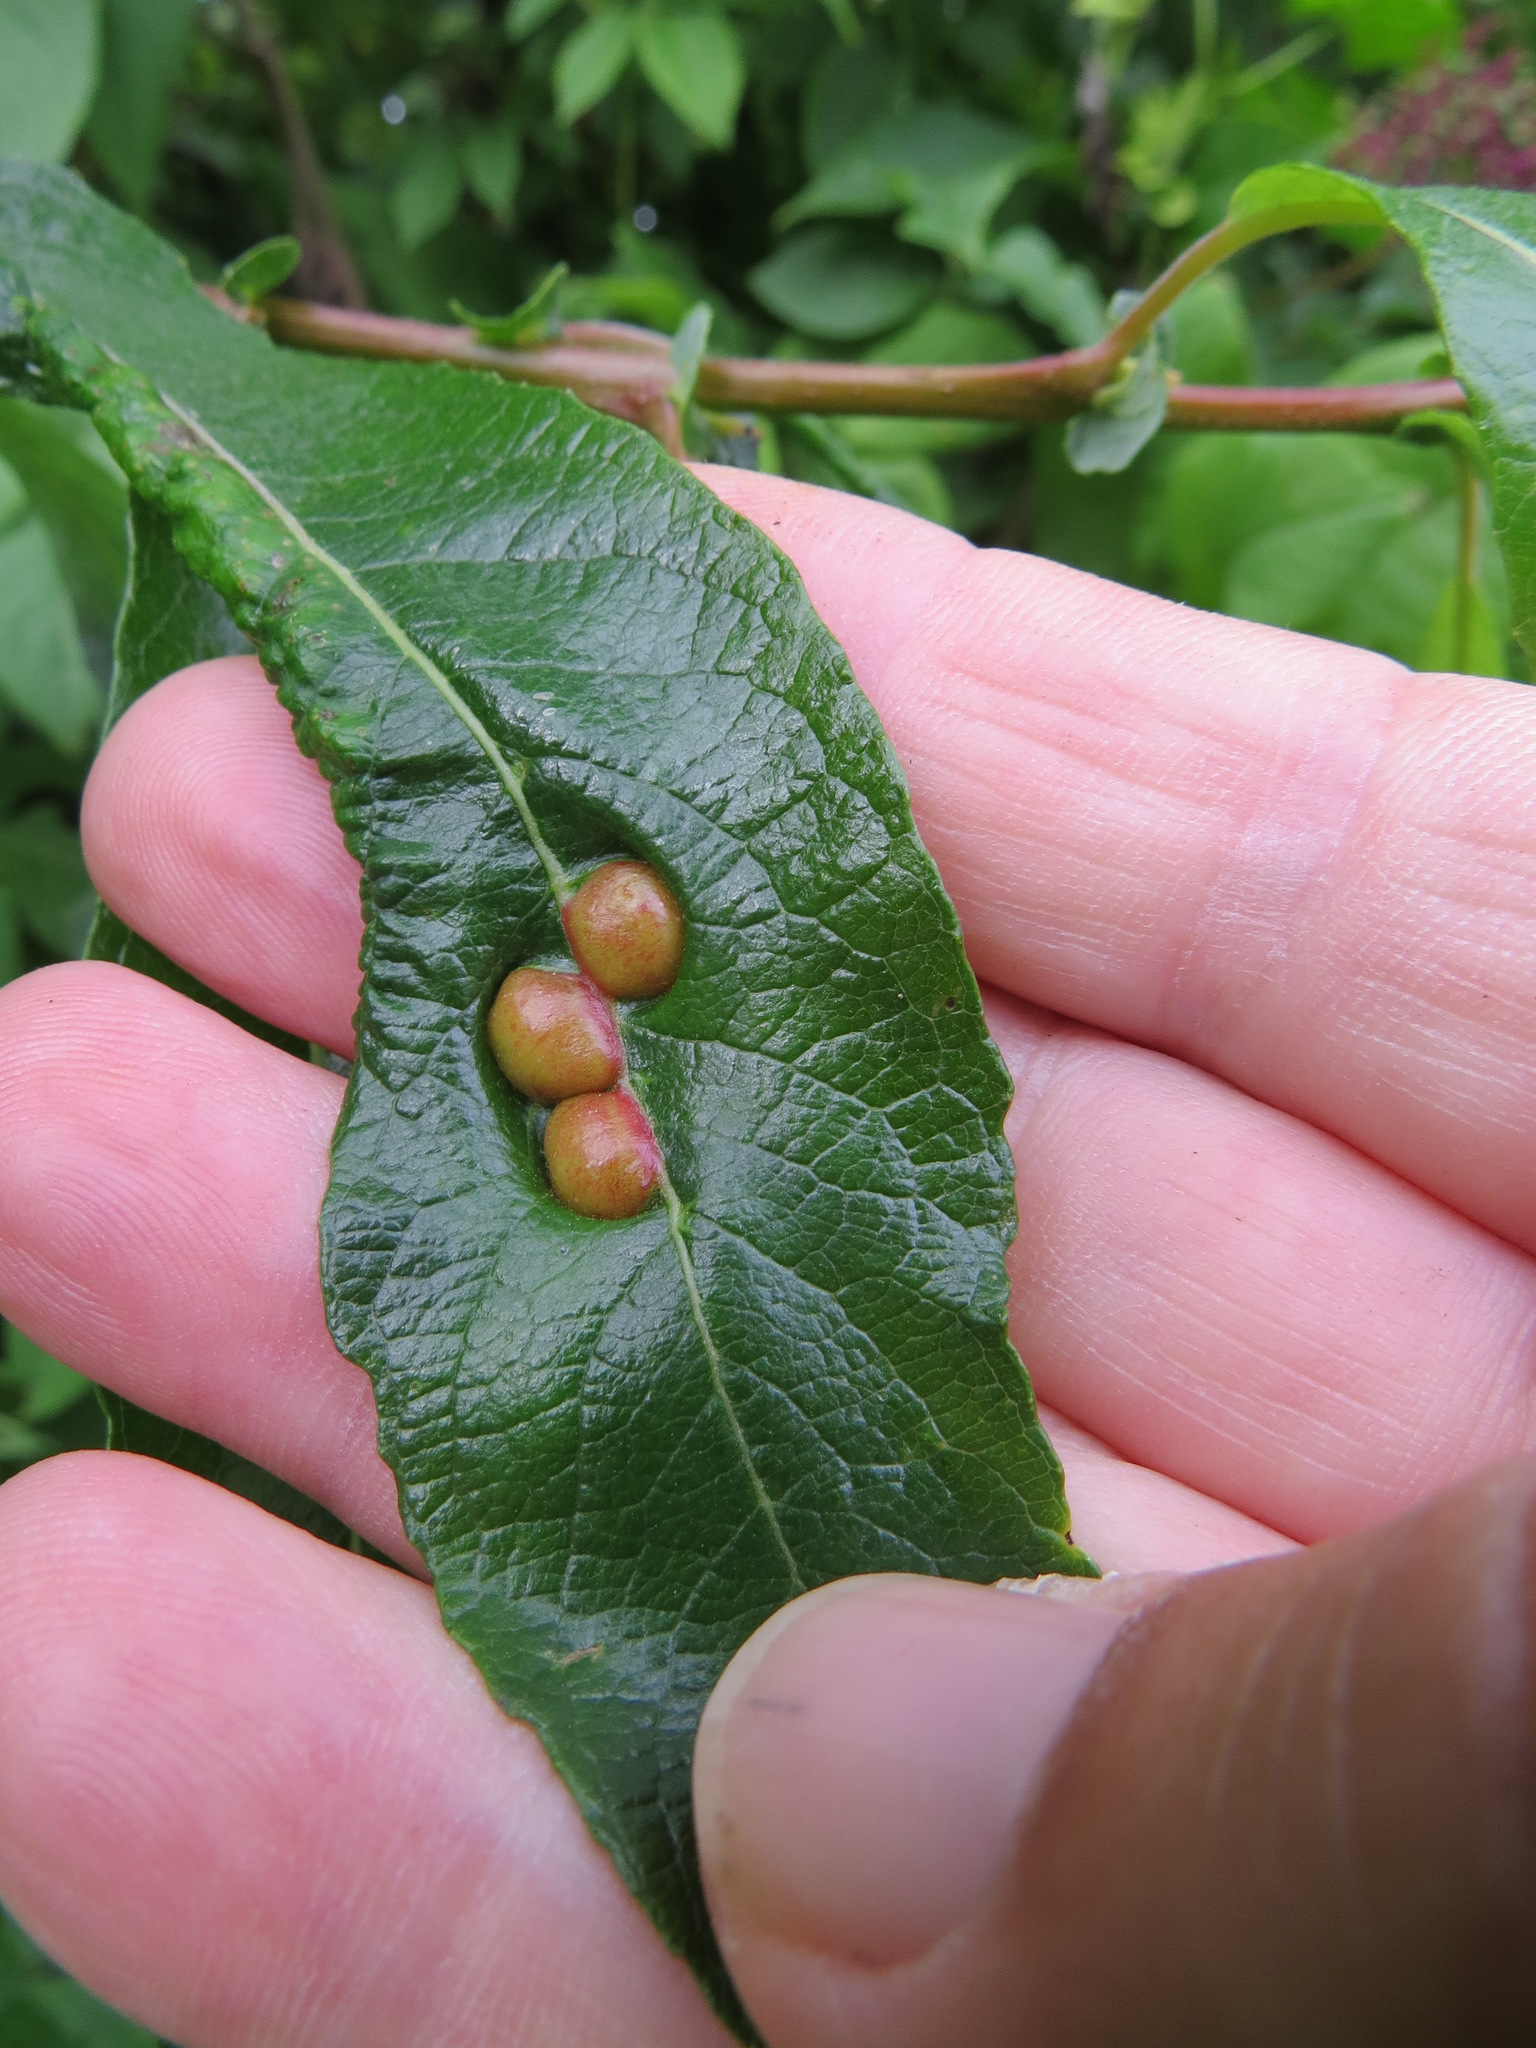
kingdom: Animalia
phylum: Arthropoda
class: Insecta
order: Hymenoptera
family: Tenthredinidae
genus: Euura
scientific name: Euura
